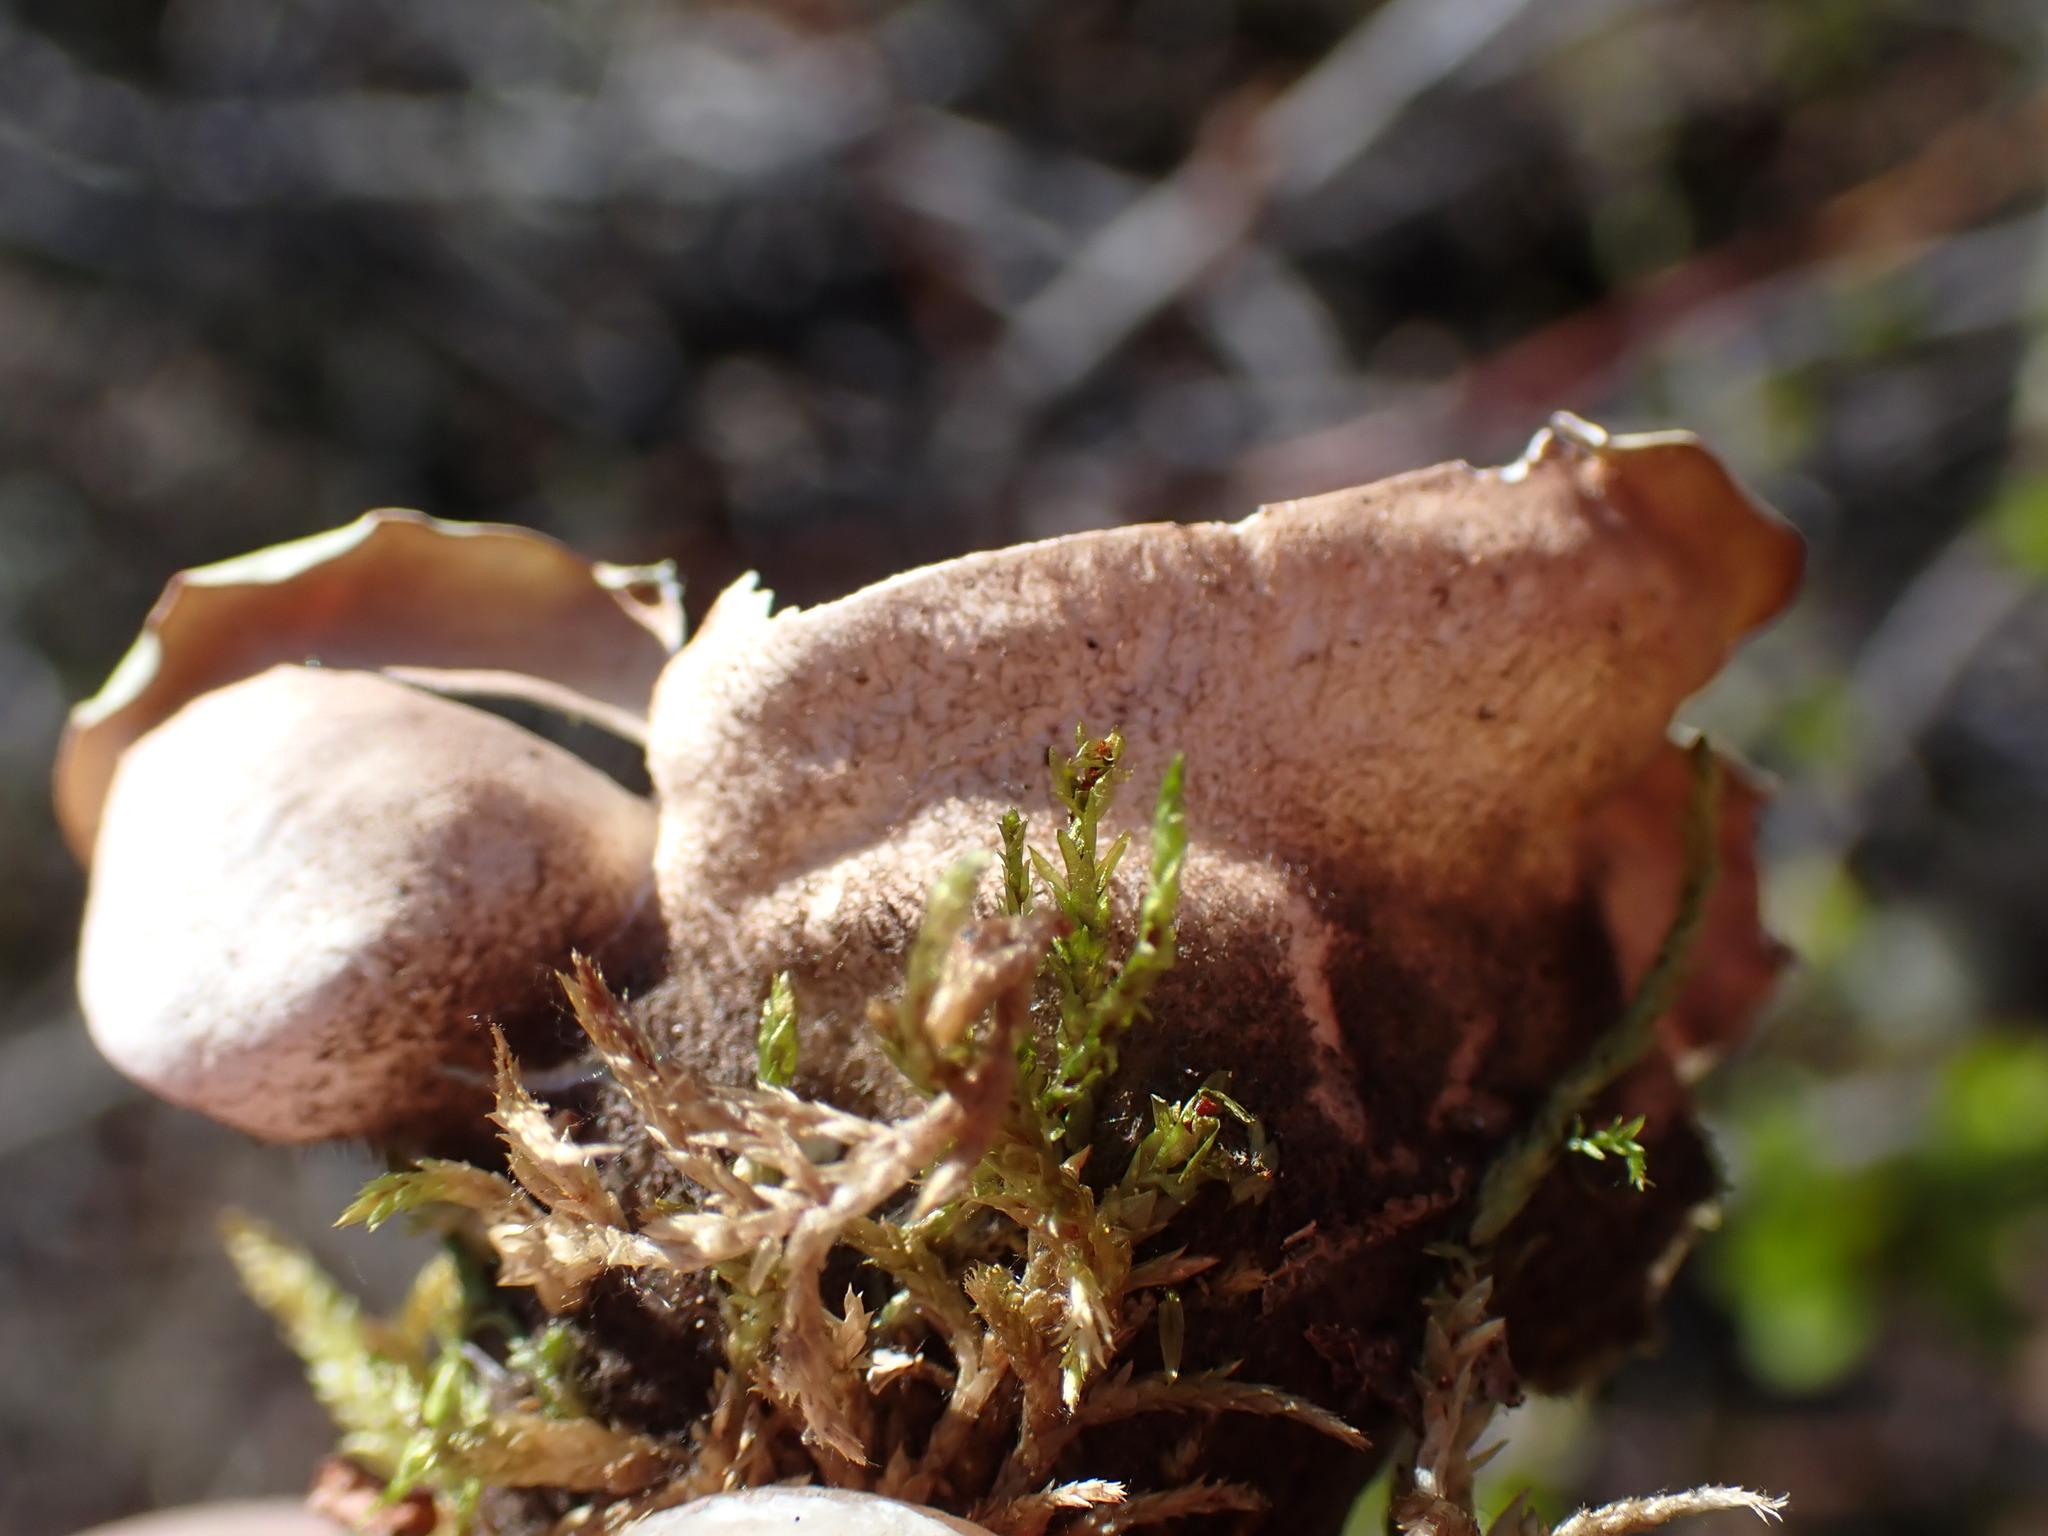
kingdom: Fungi
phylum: Ascomycota
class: Lecanoromycetes
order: Peltigerales
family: Nephromataceae
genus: Nephroma
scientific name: Nephroma arcticum
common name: Arctic kidney-lichen
